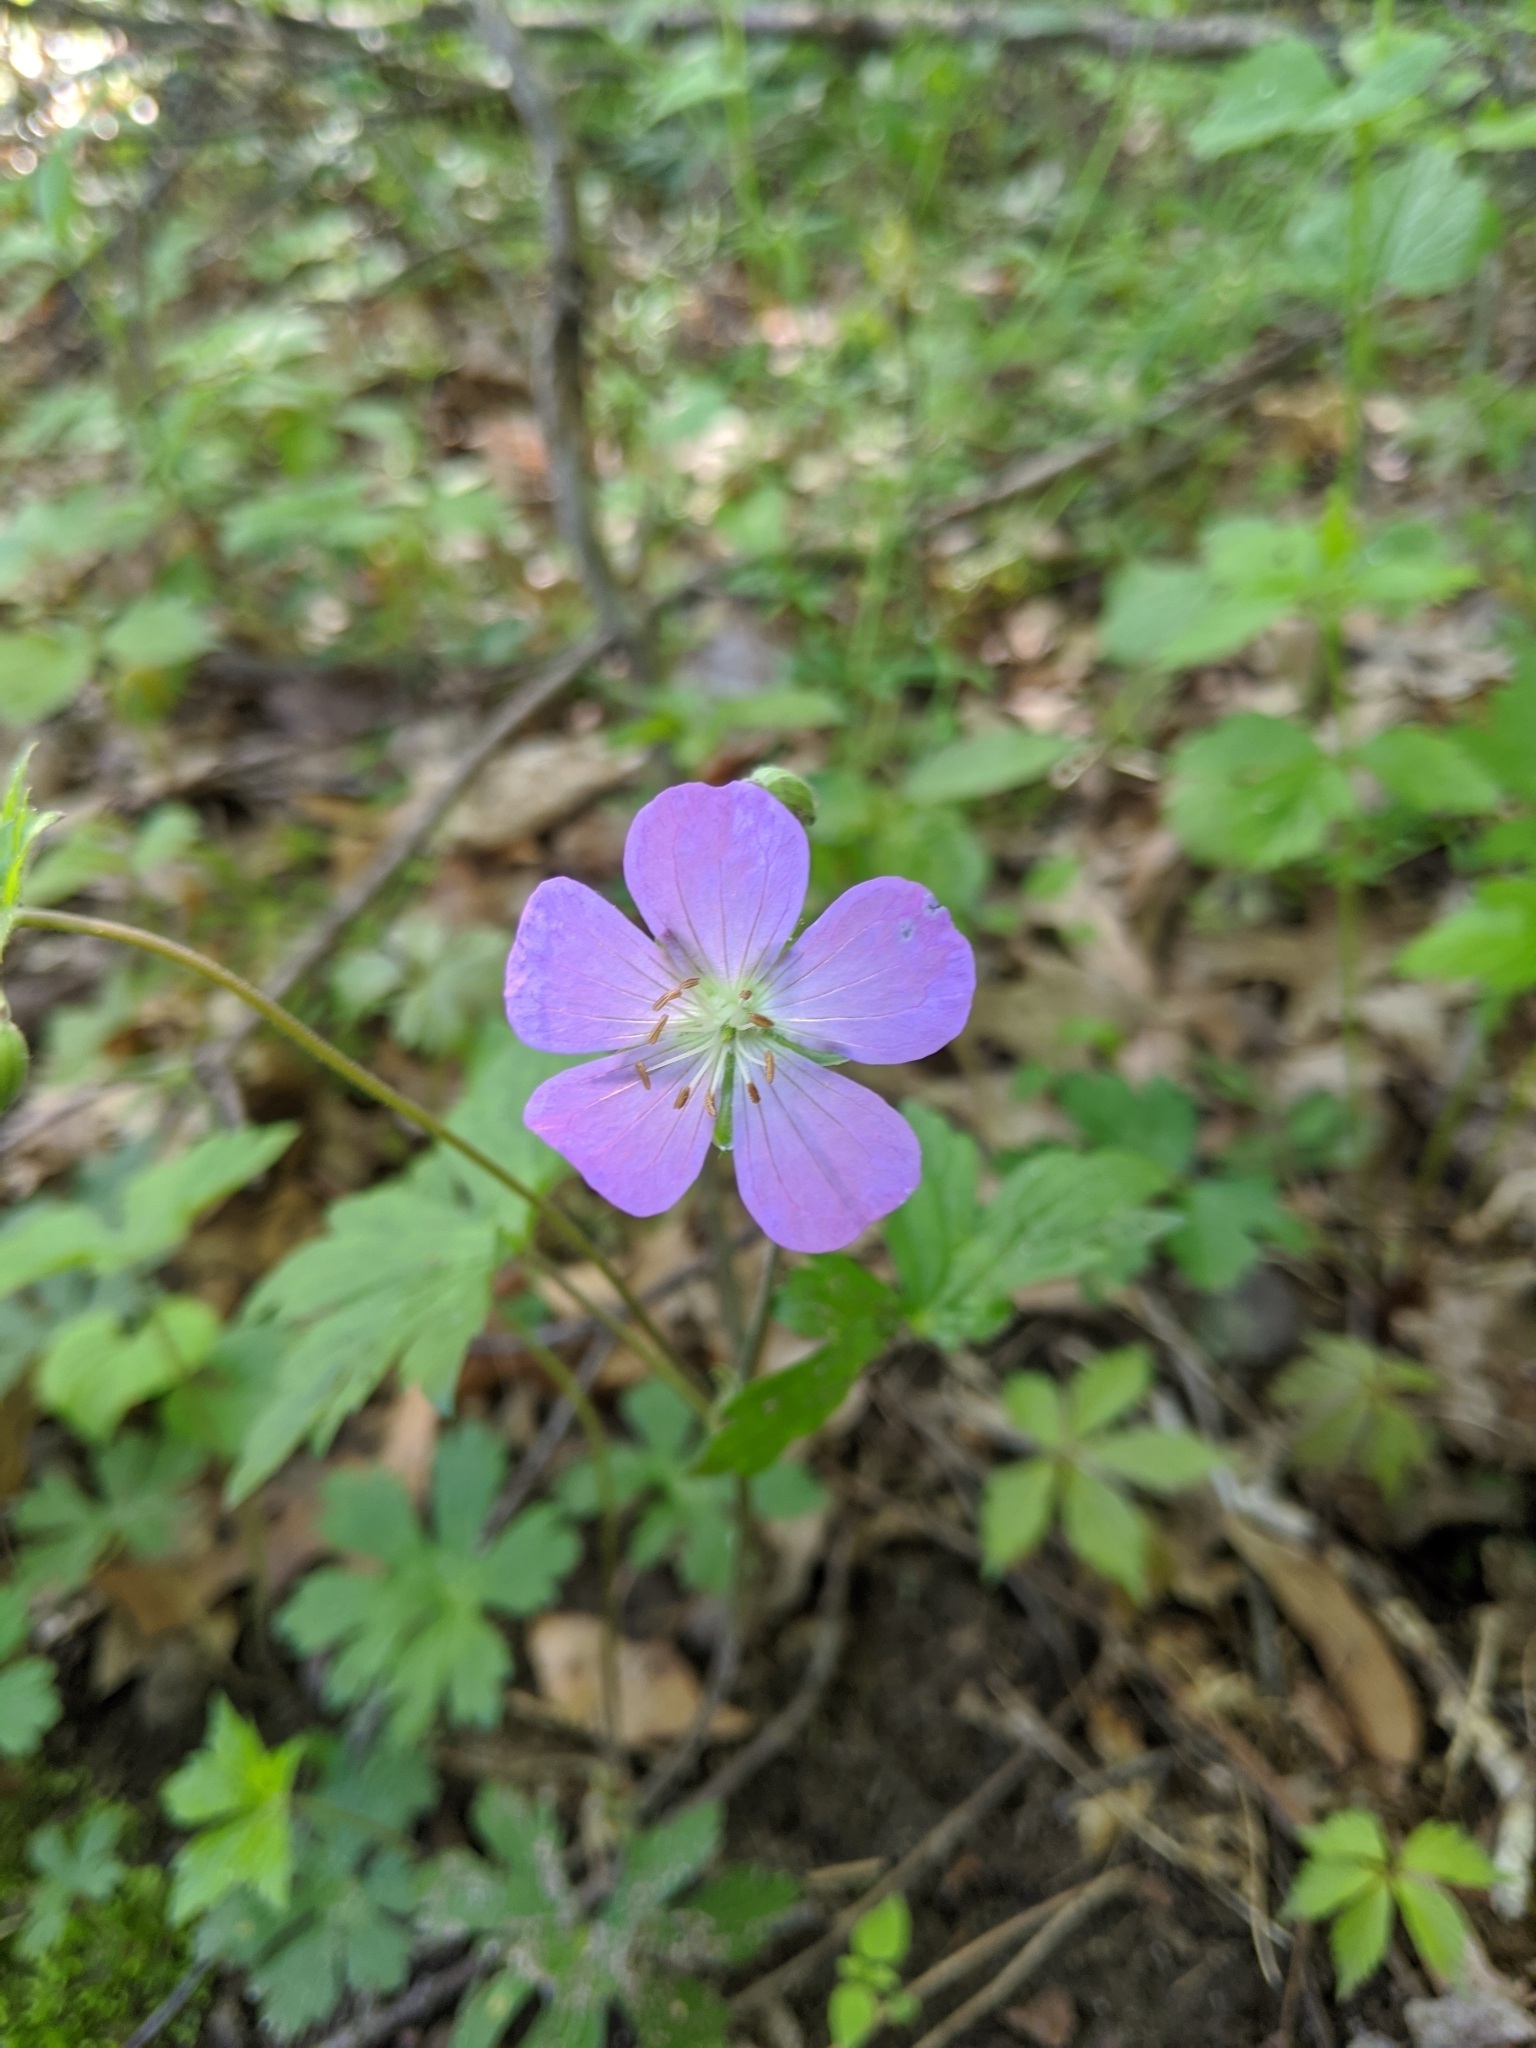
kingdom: Plantae
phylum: Tracheophyta
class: Magnoliopsida
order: Geraniales
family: Geraniaceae
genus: Geranium
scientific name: Geranium maculatum
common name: Spotted geranium
